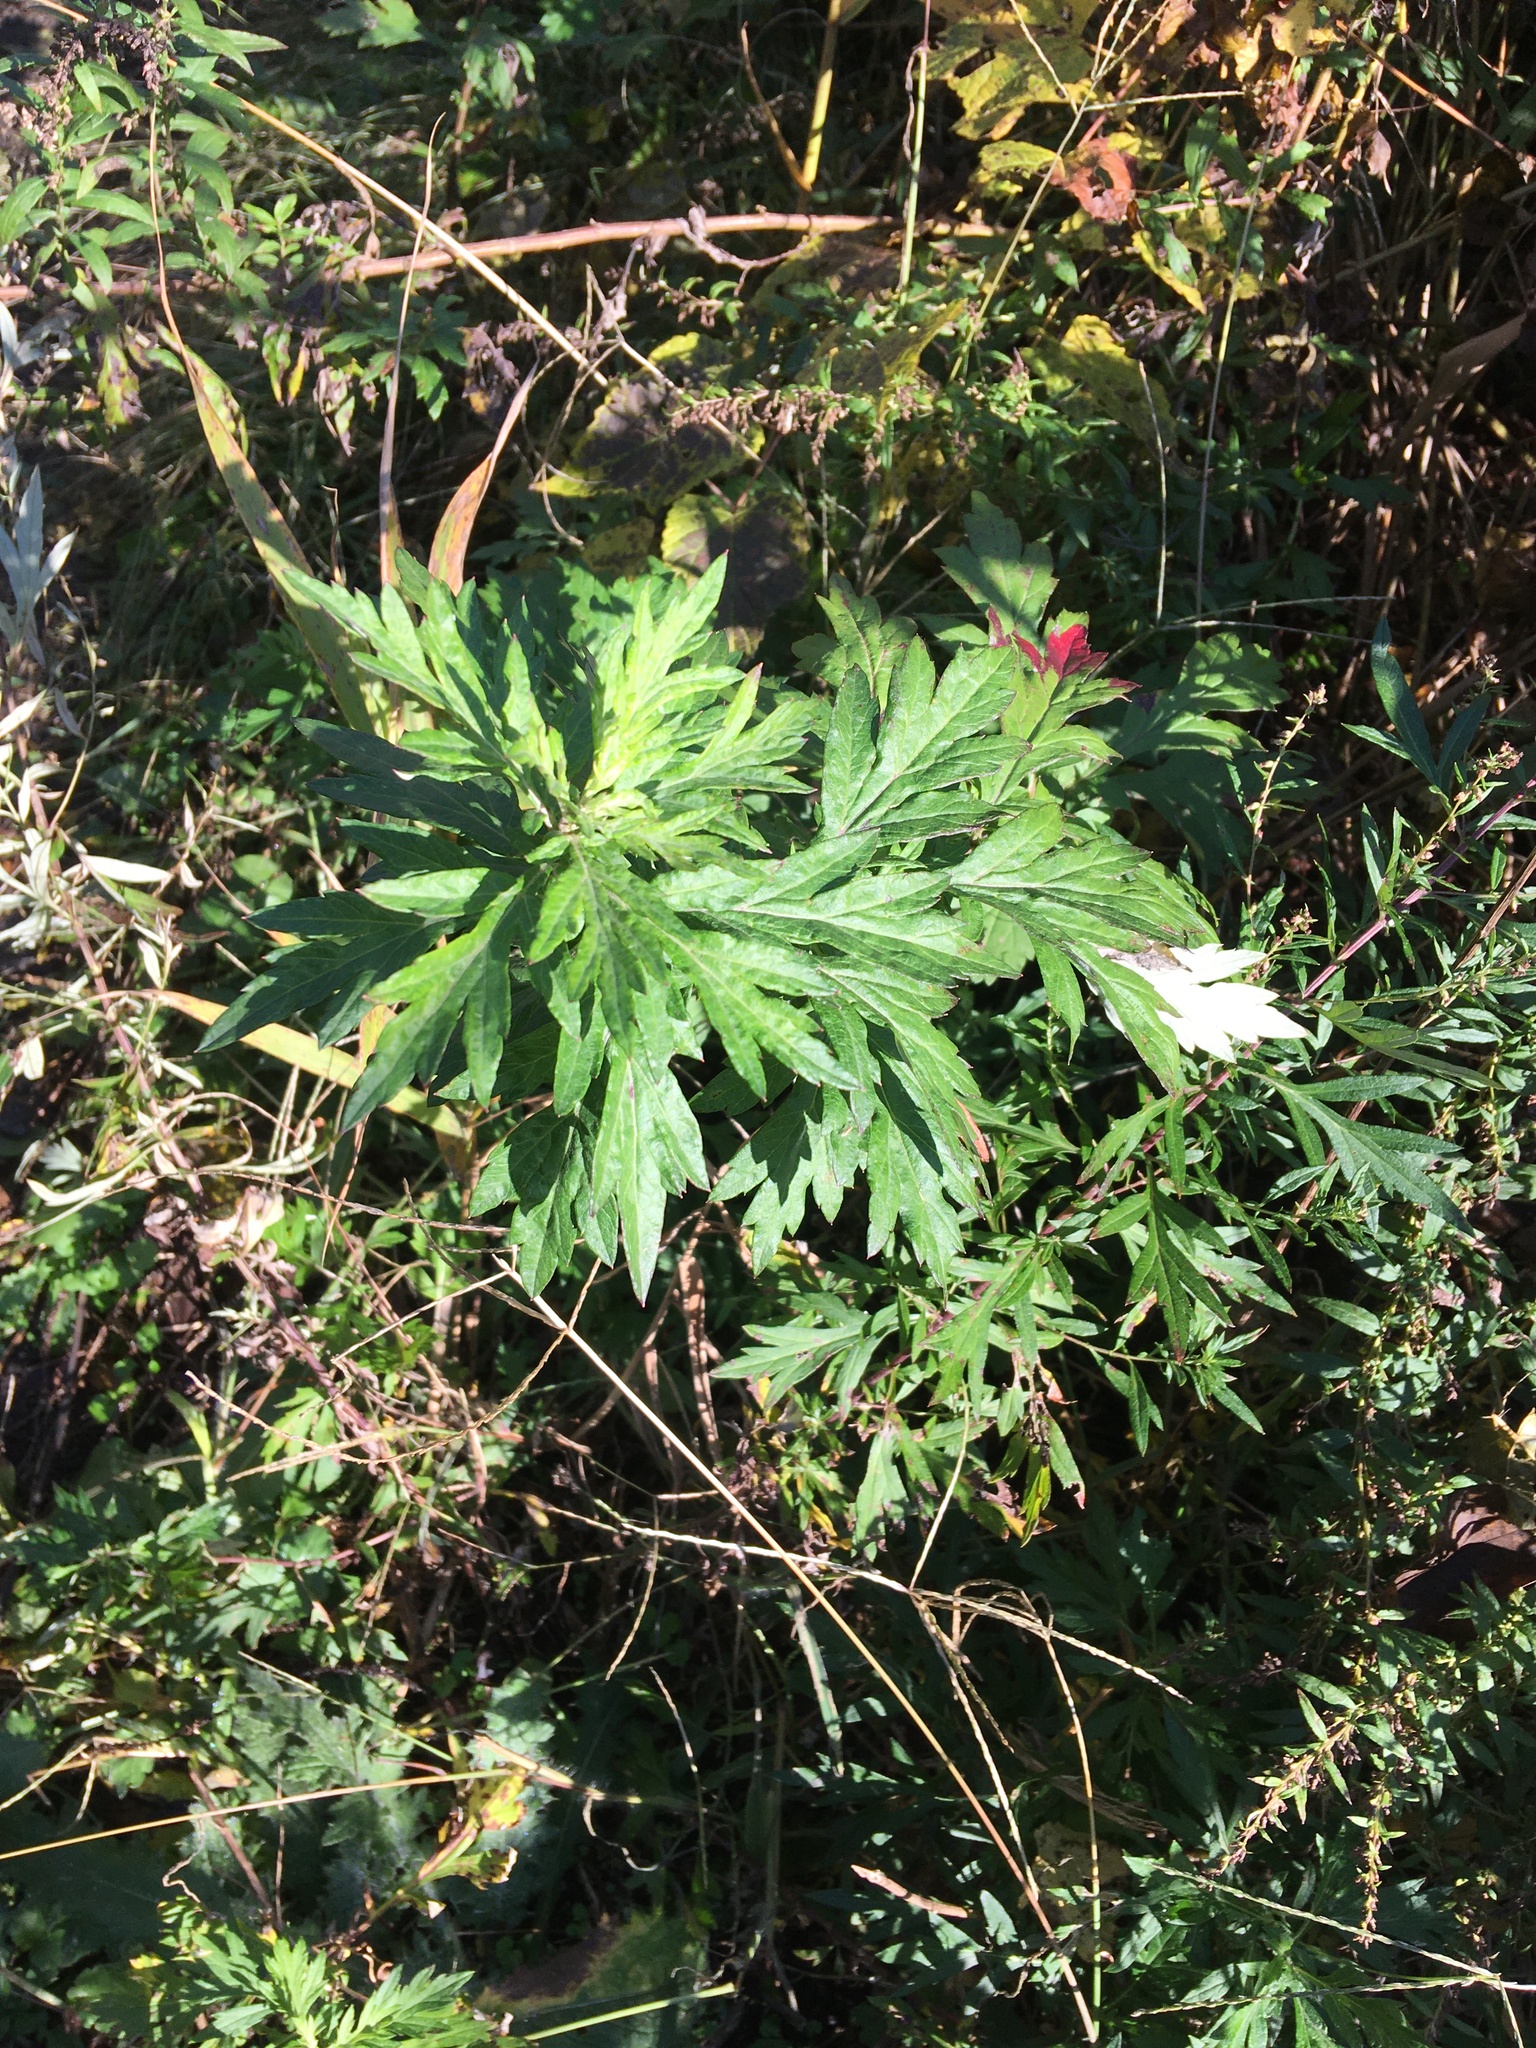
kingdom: Plantae
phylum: Tracheophyta
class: Magnoliopsida
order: Asterales
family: Asteraceae
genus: Artemisia
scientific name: Artemisia vulgaris
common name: Mugwort
